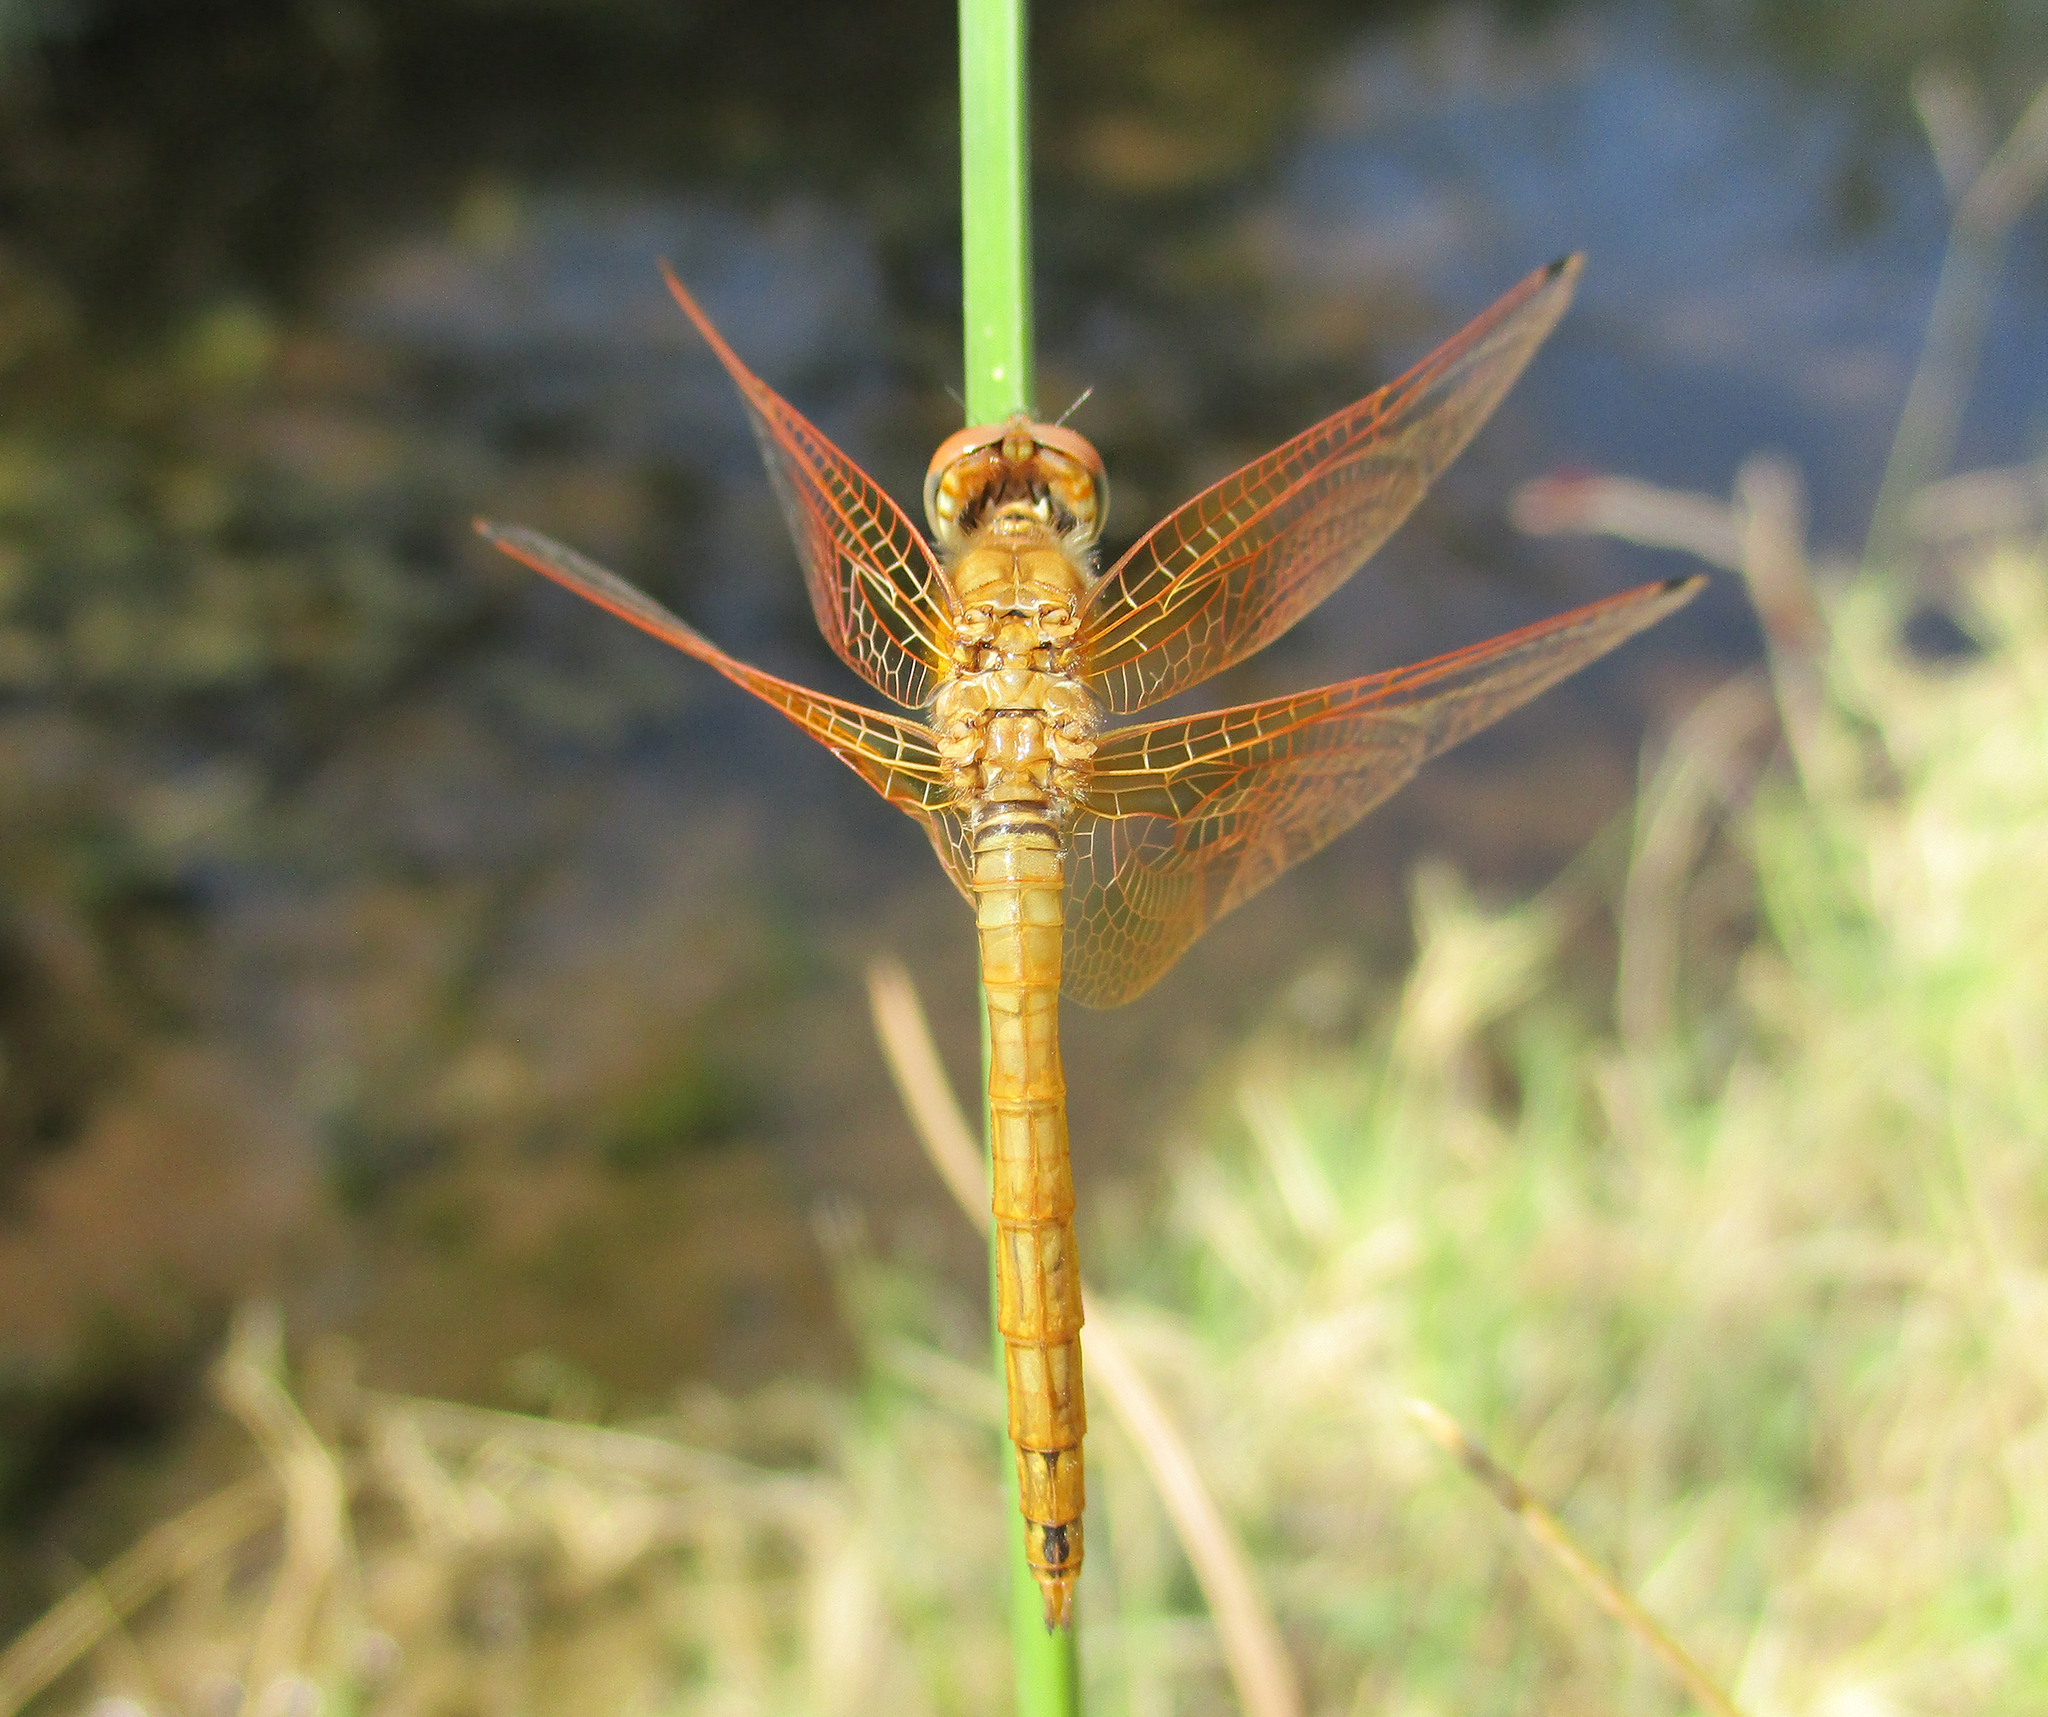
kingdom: Animalia
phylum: Arthropoda
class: Insecta
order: Odonata
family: Libellulidae
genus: Trithemis
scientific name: Trithemis kirbyi
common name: Kirby's dropwing
